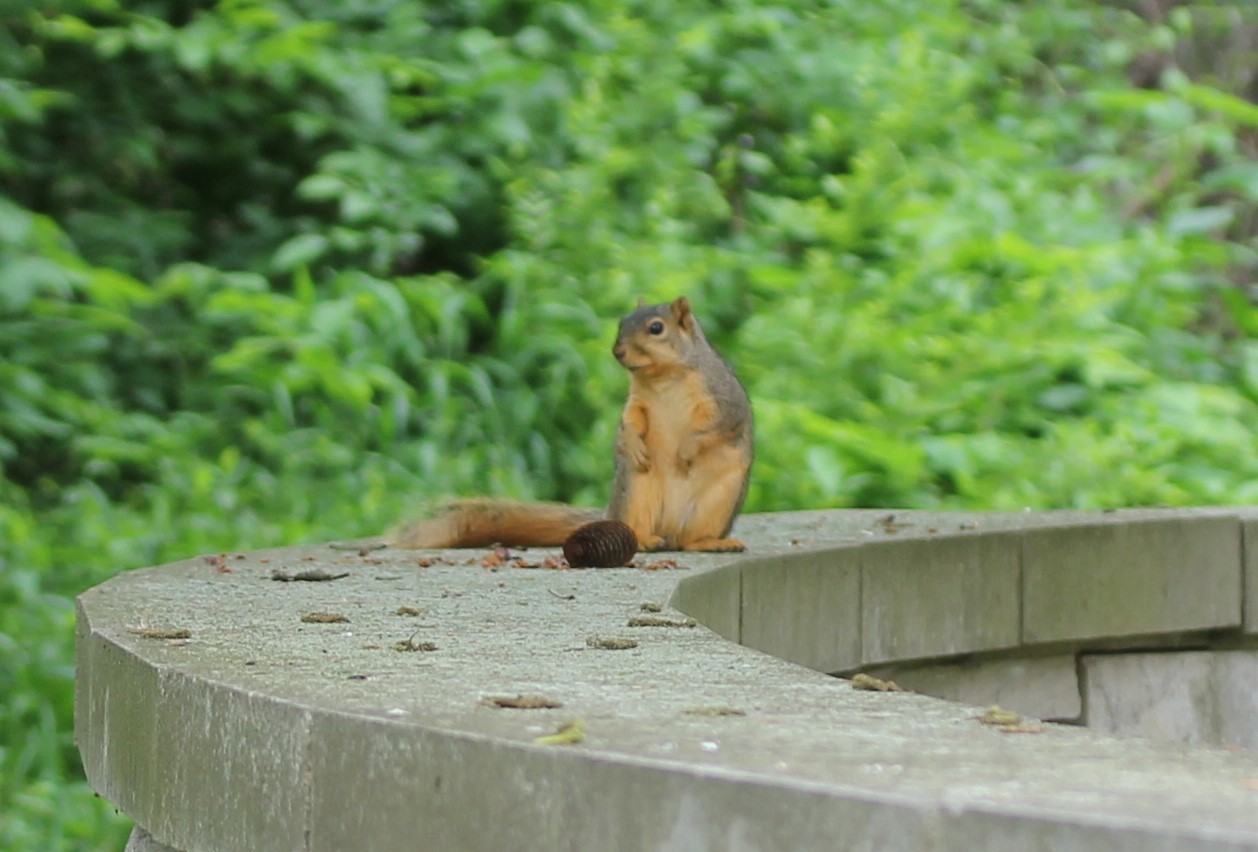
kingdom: Animalia
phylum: Chordata
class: Mammalia
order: Rodentia
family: Sciuridae
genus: Sciurus
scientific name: Sciurus niger
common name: Fox squirrel
